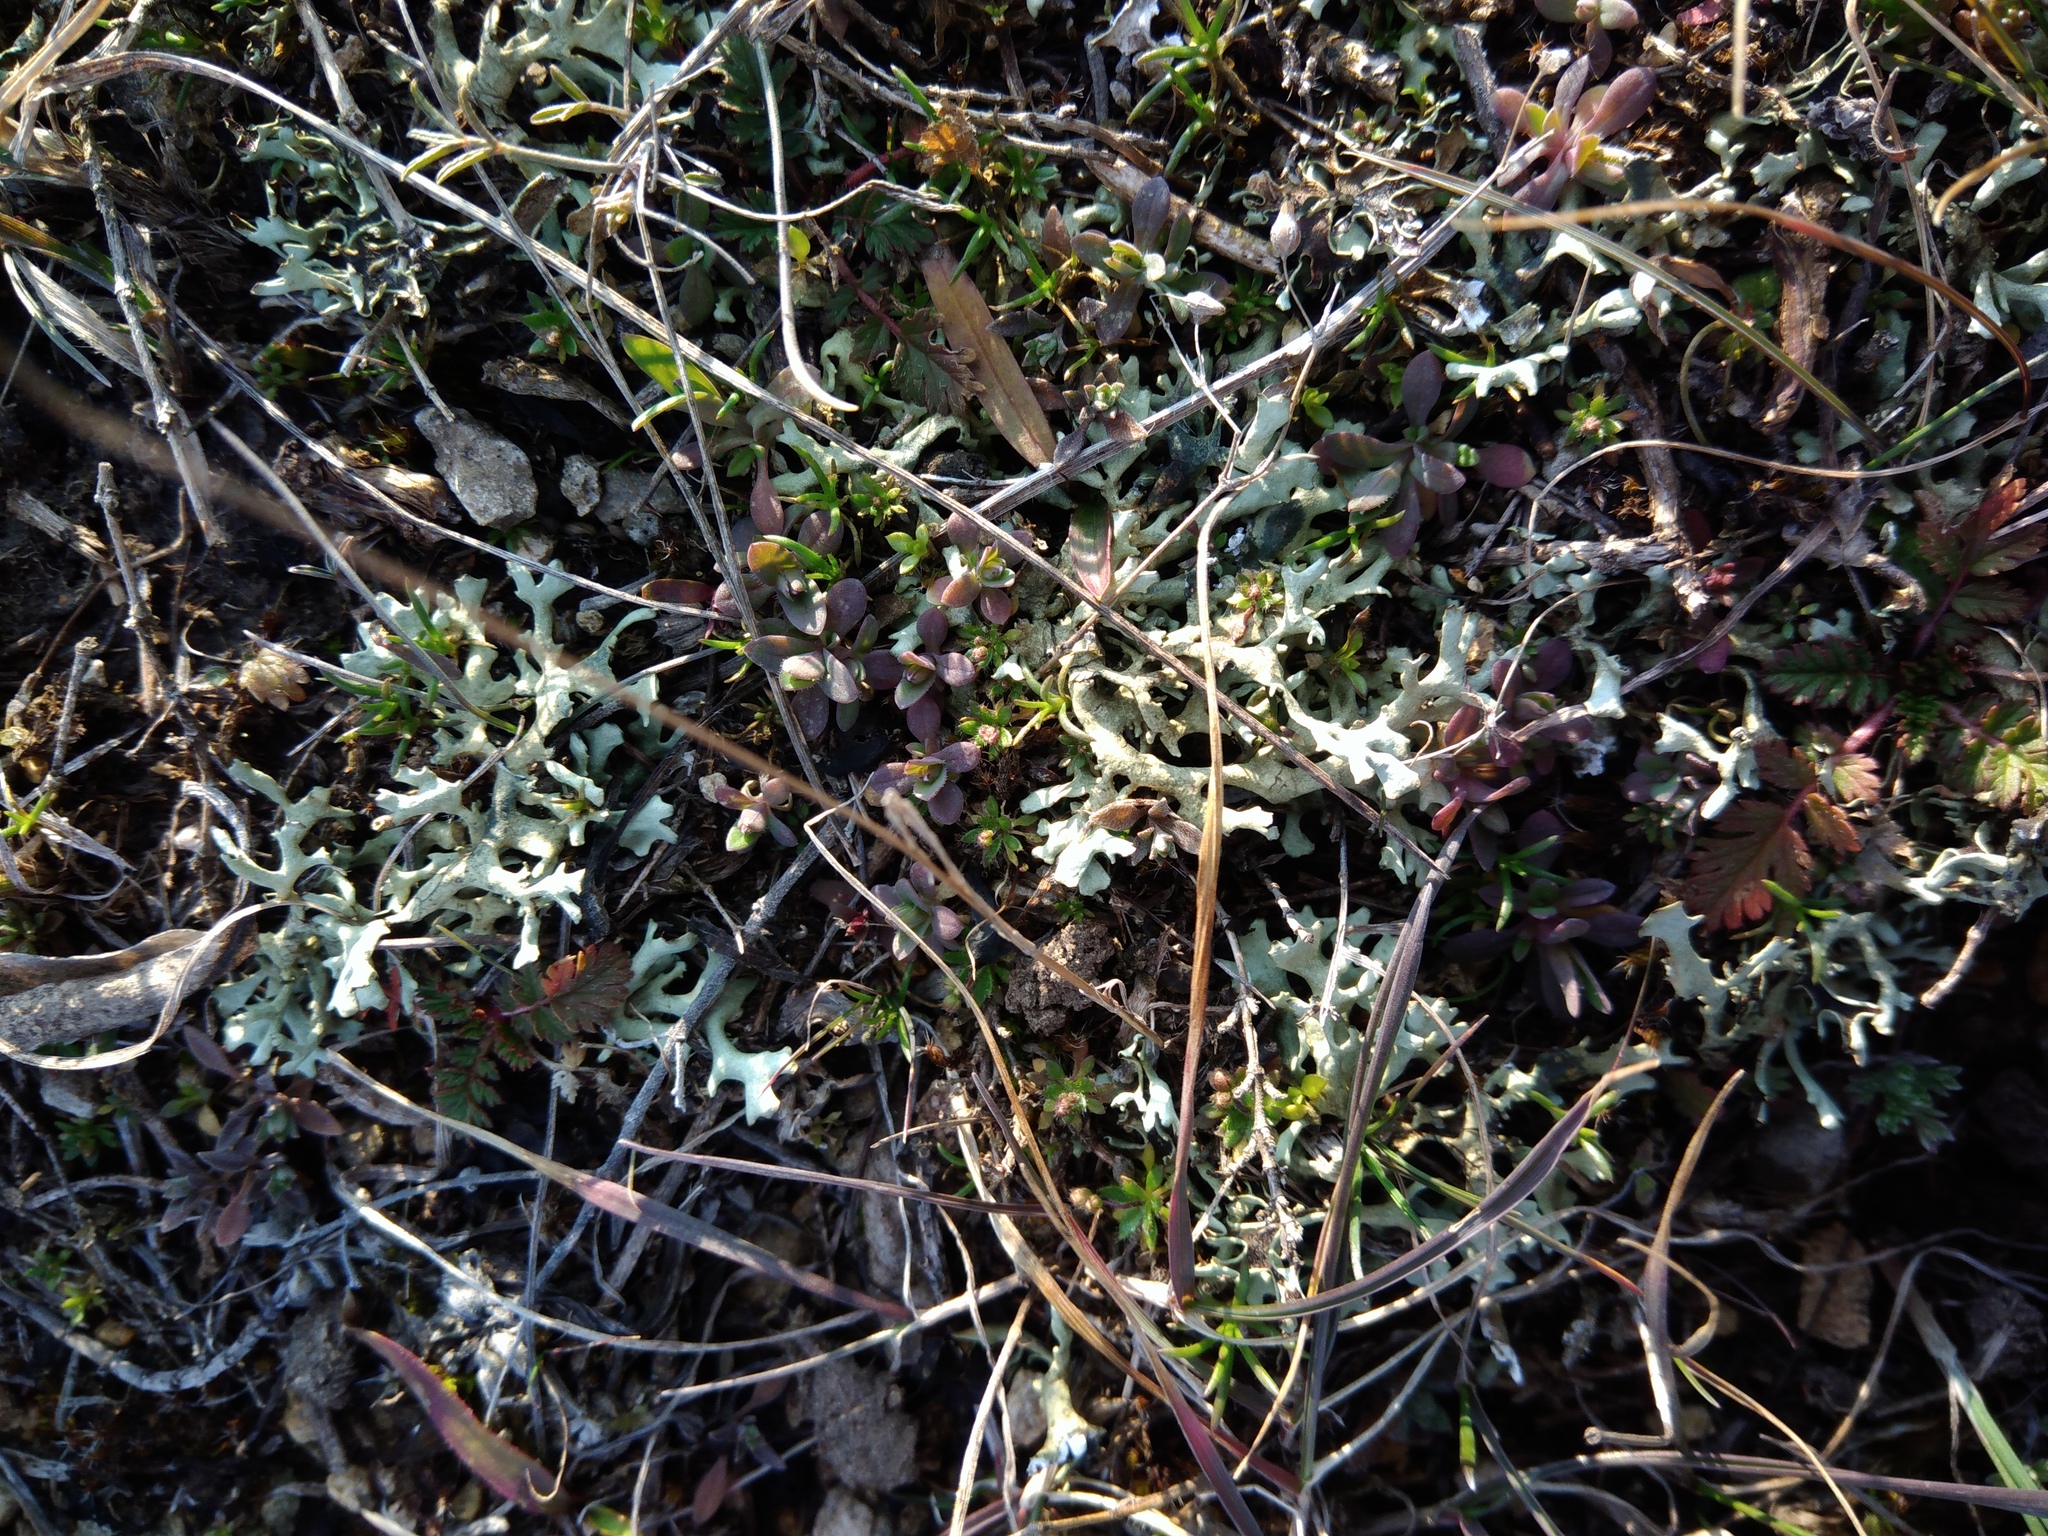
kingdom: Fungi
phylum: Ascomycota
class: Lecanoromycetes
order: Lecanorales
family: Parmeliaceae
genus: Xanthoparmelia
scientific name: Xanthoparmelia camtschadalis
